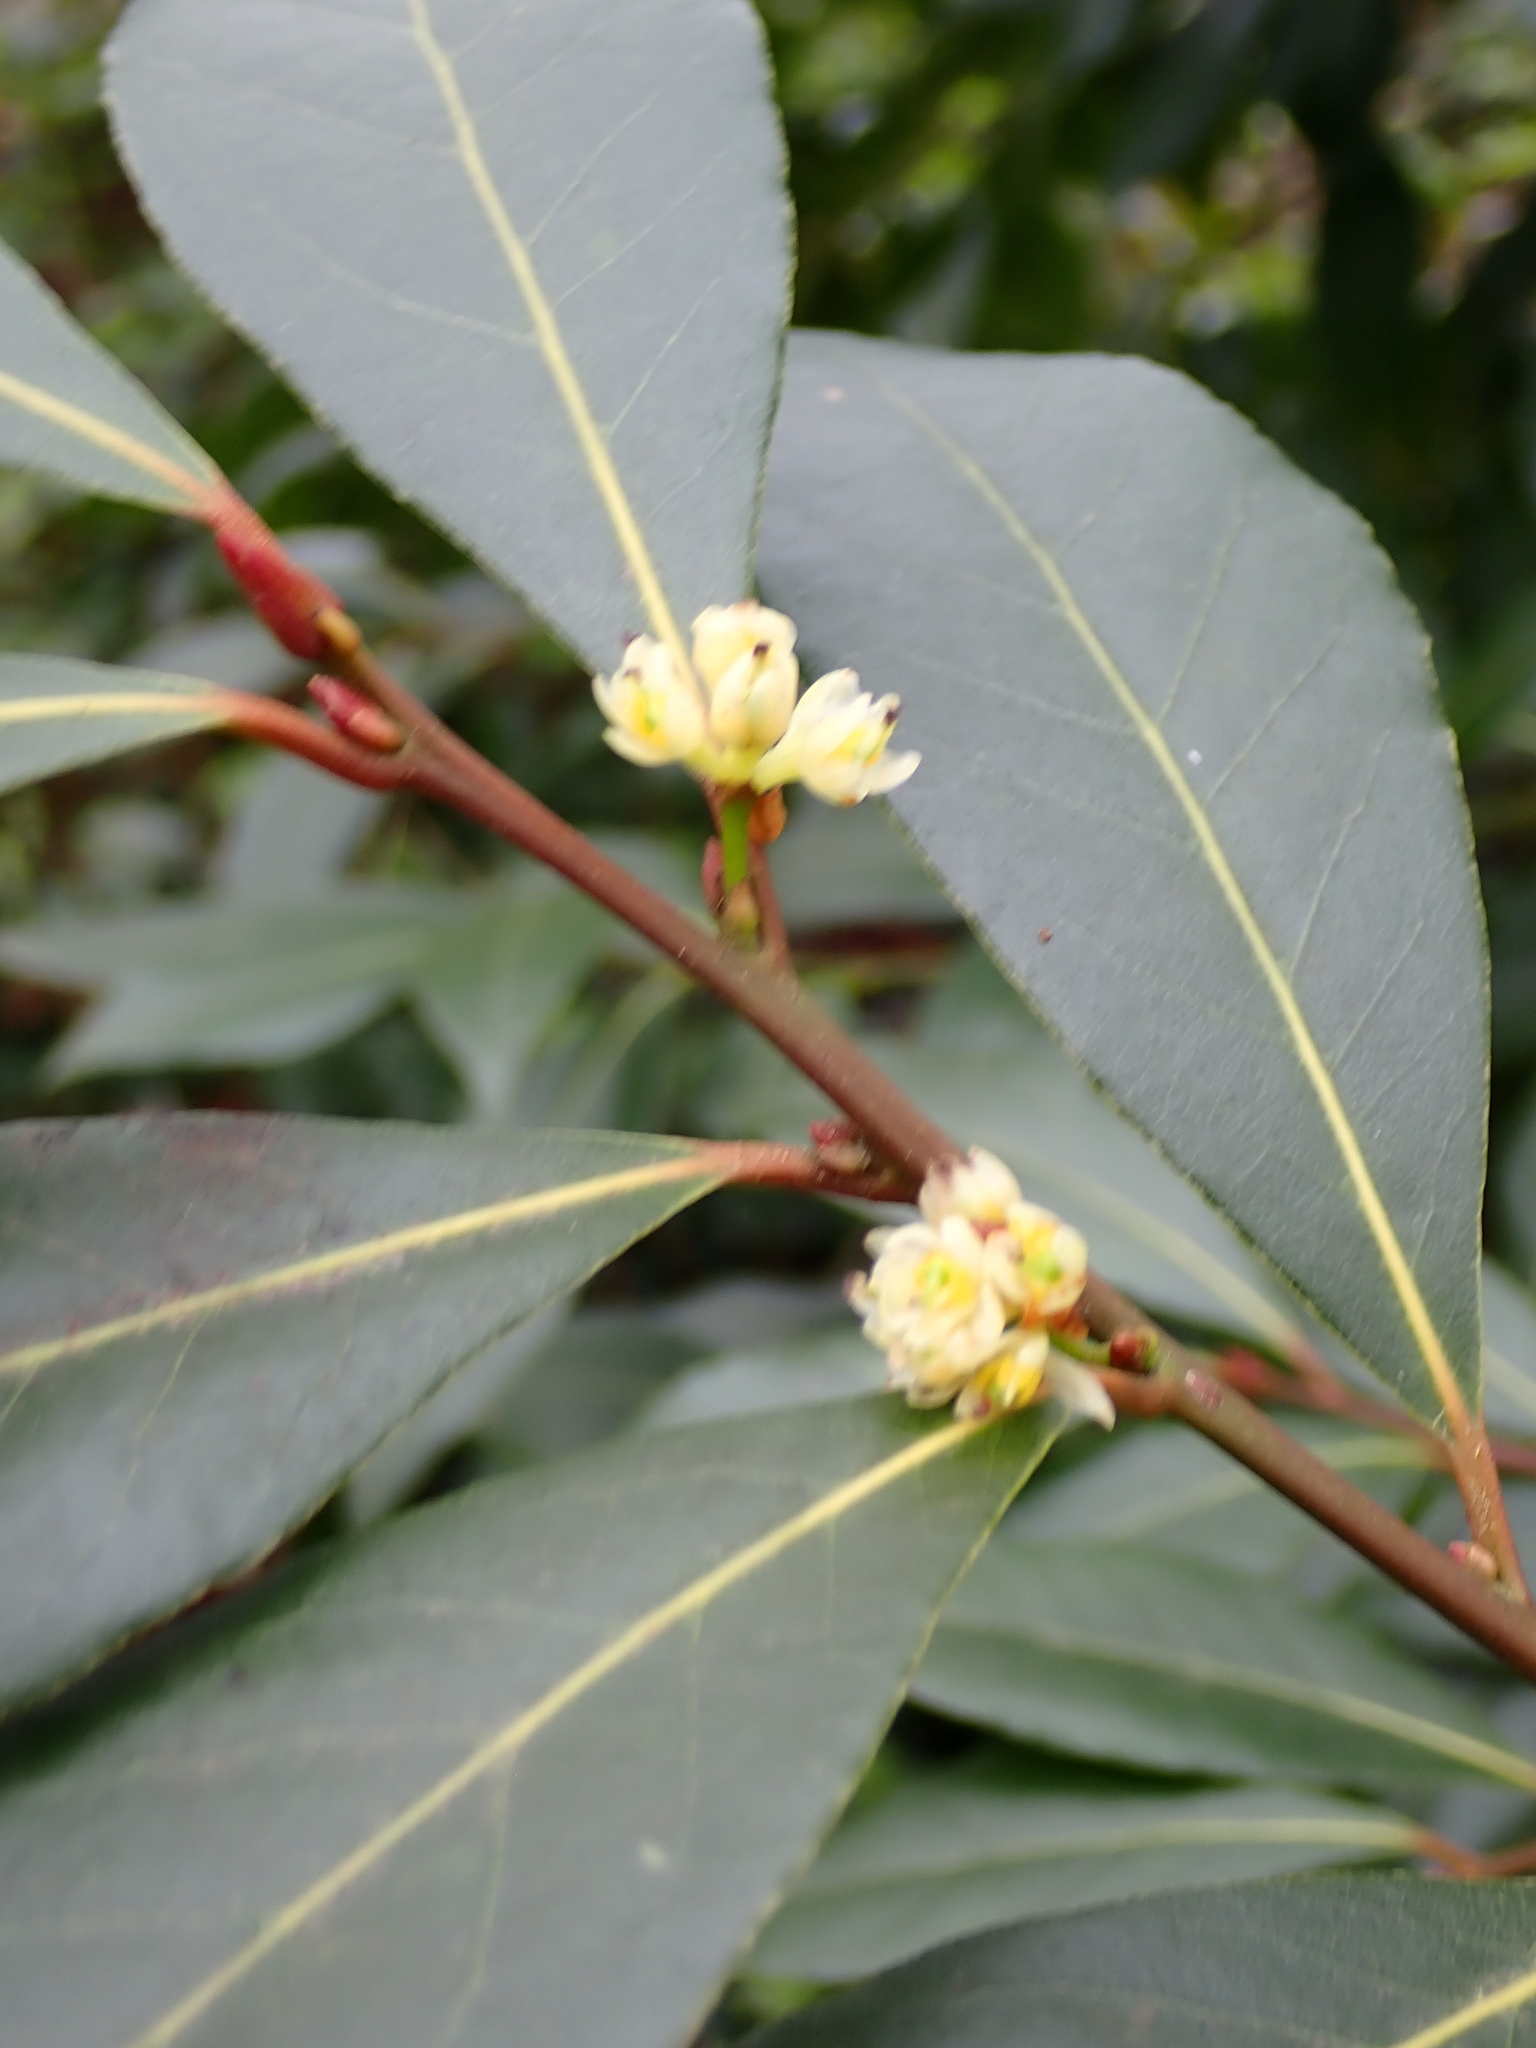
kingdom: Plantae
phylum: Tracheophyta
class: Magnoliopsida
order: Laurales
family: Lauraceae
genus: Laurus
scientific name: Laurus nobilis
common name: Bay
